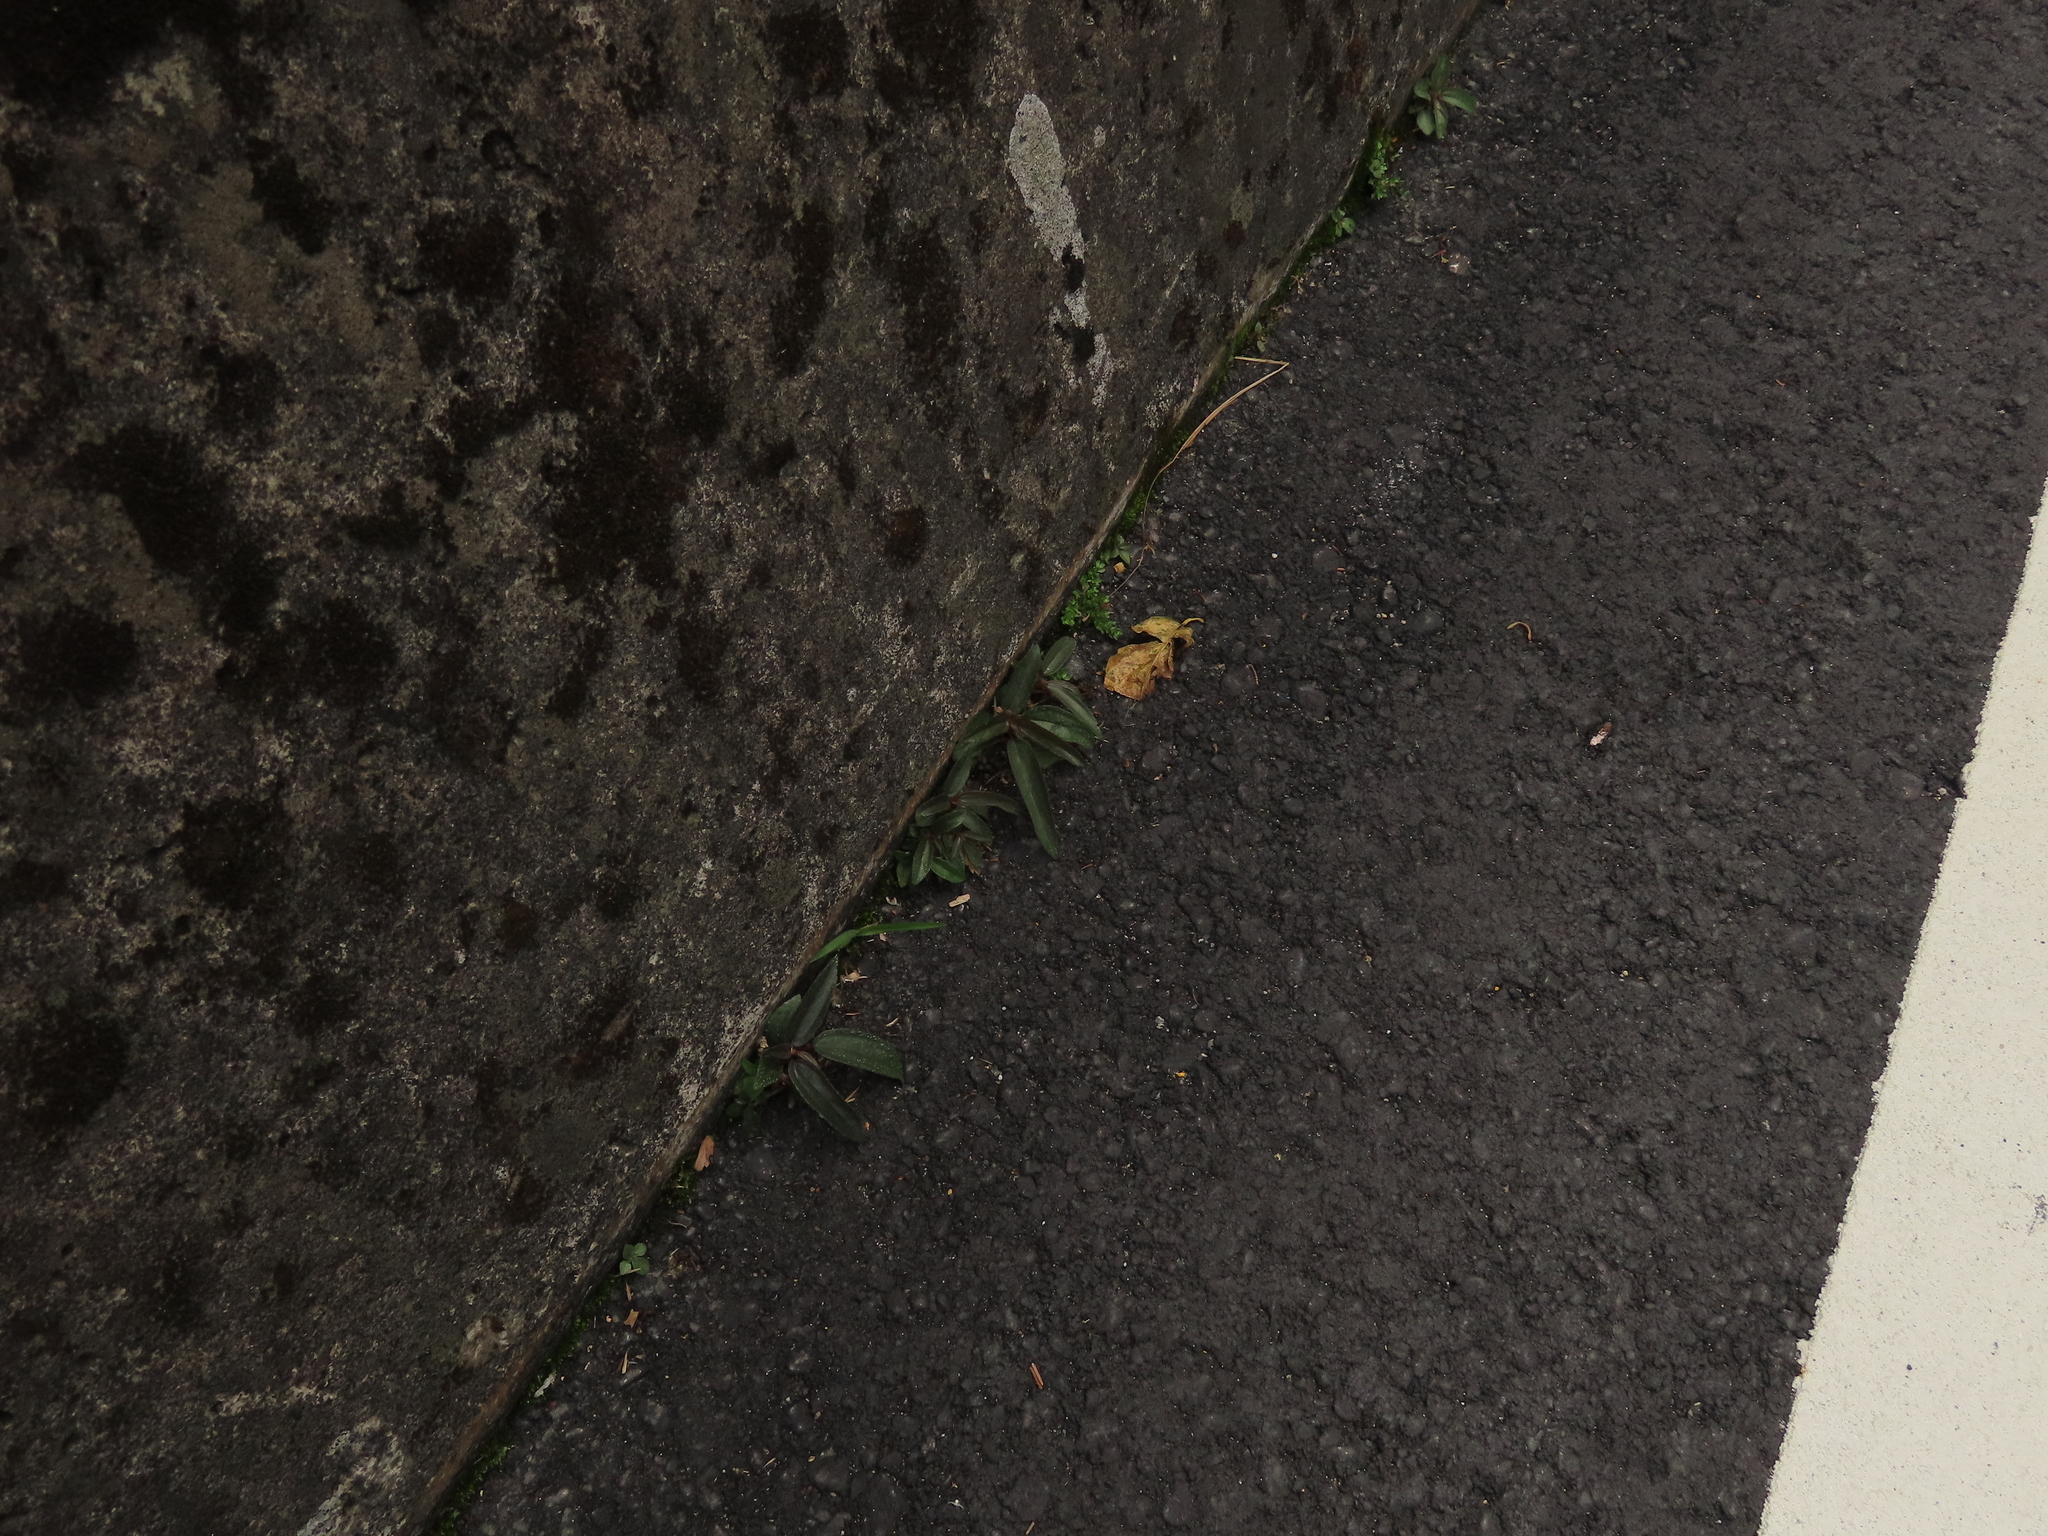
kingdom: Plantae
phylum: Tracheophyta
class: Magnoliopsida
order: Rosales
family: Urticaceae
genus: Boehmeria
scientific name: Boehmeria densiflora
